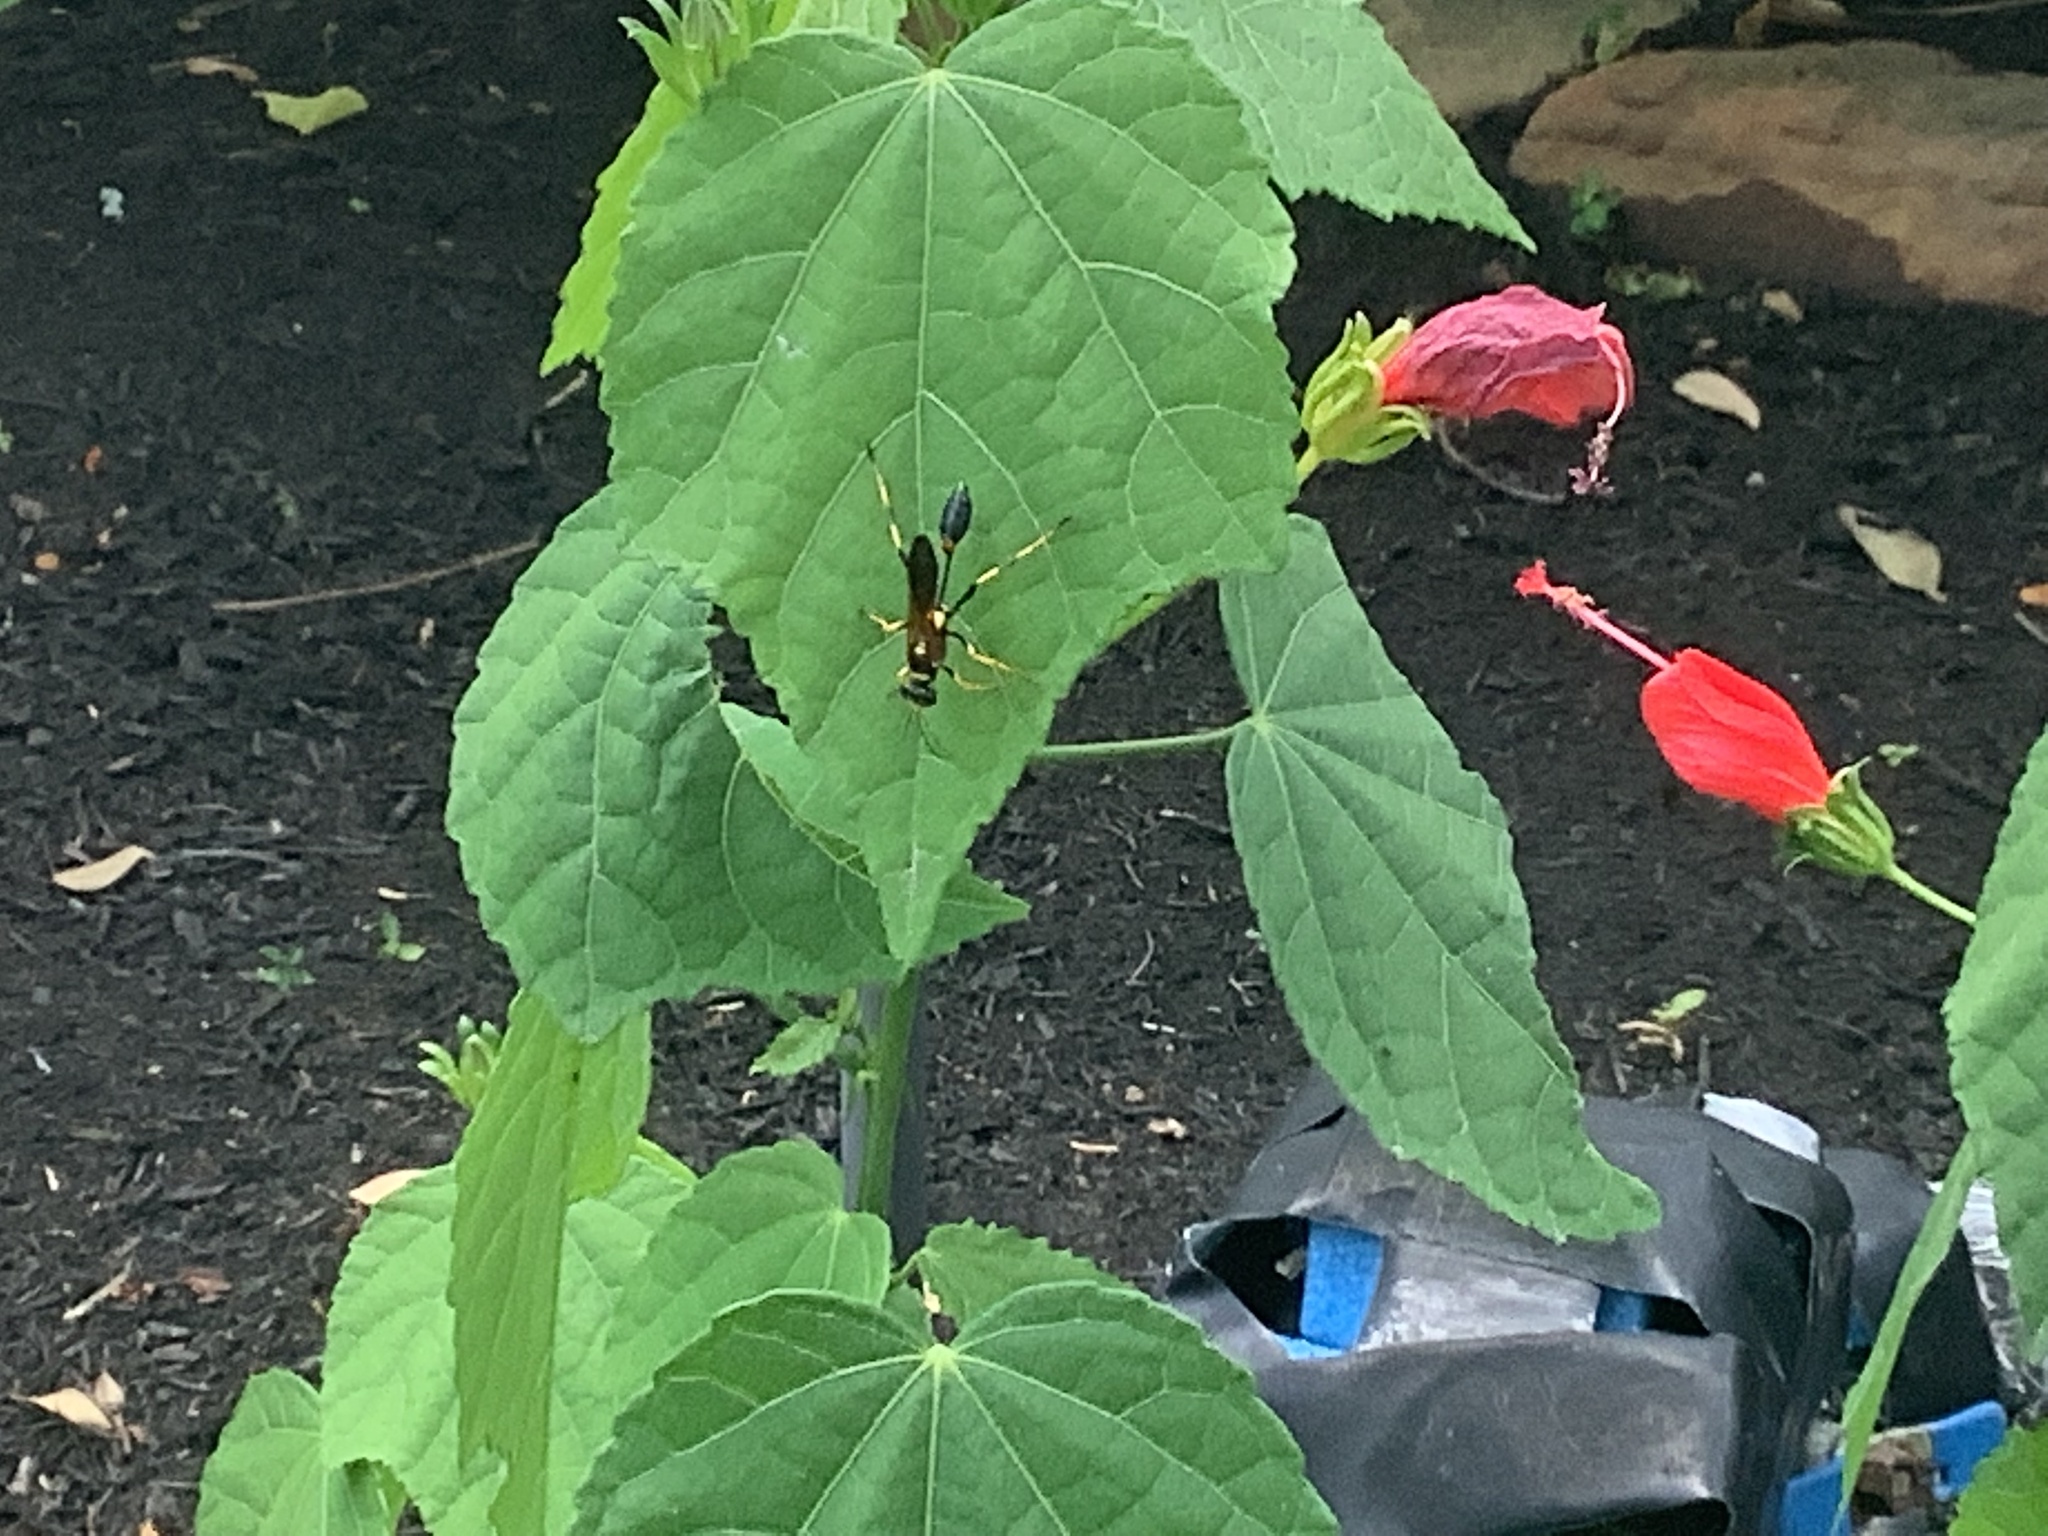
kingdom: Animalia
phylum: Arthropoda
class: Insecta
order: Hymenoptera
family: Sphecidae
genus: Sceliphron
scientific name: Sceliphron caementarium
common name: Mud dauber
